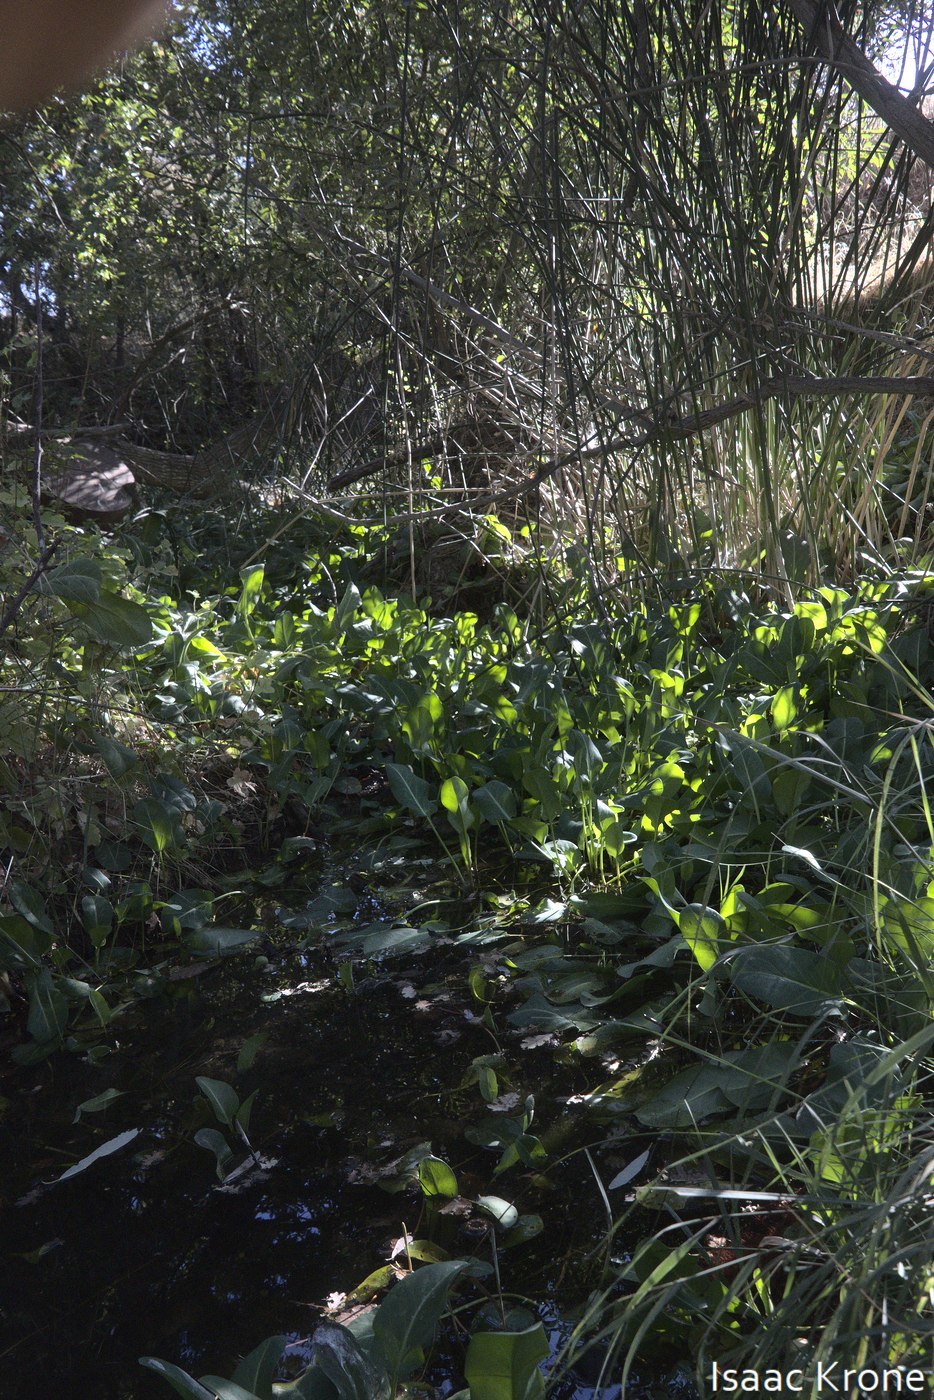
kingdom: Plantae
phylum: Tracheophyta
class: Magnoliopsida
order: Piperales
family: Saururaceae
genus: Anemopsis
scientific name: Anemopsis californica
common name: Apache-beads
